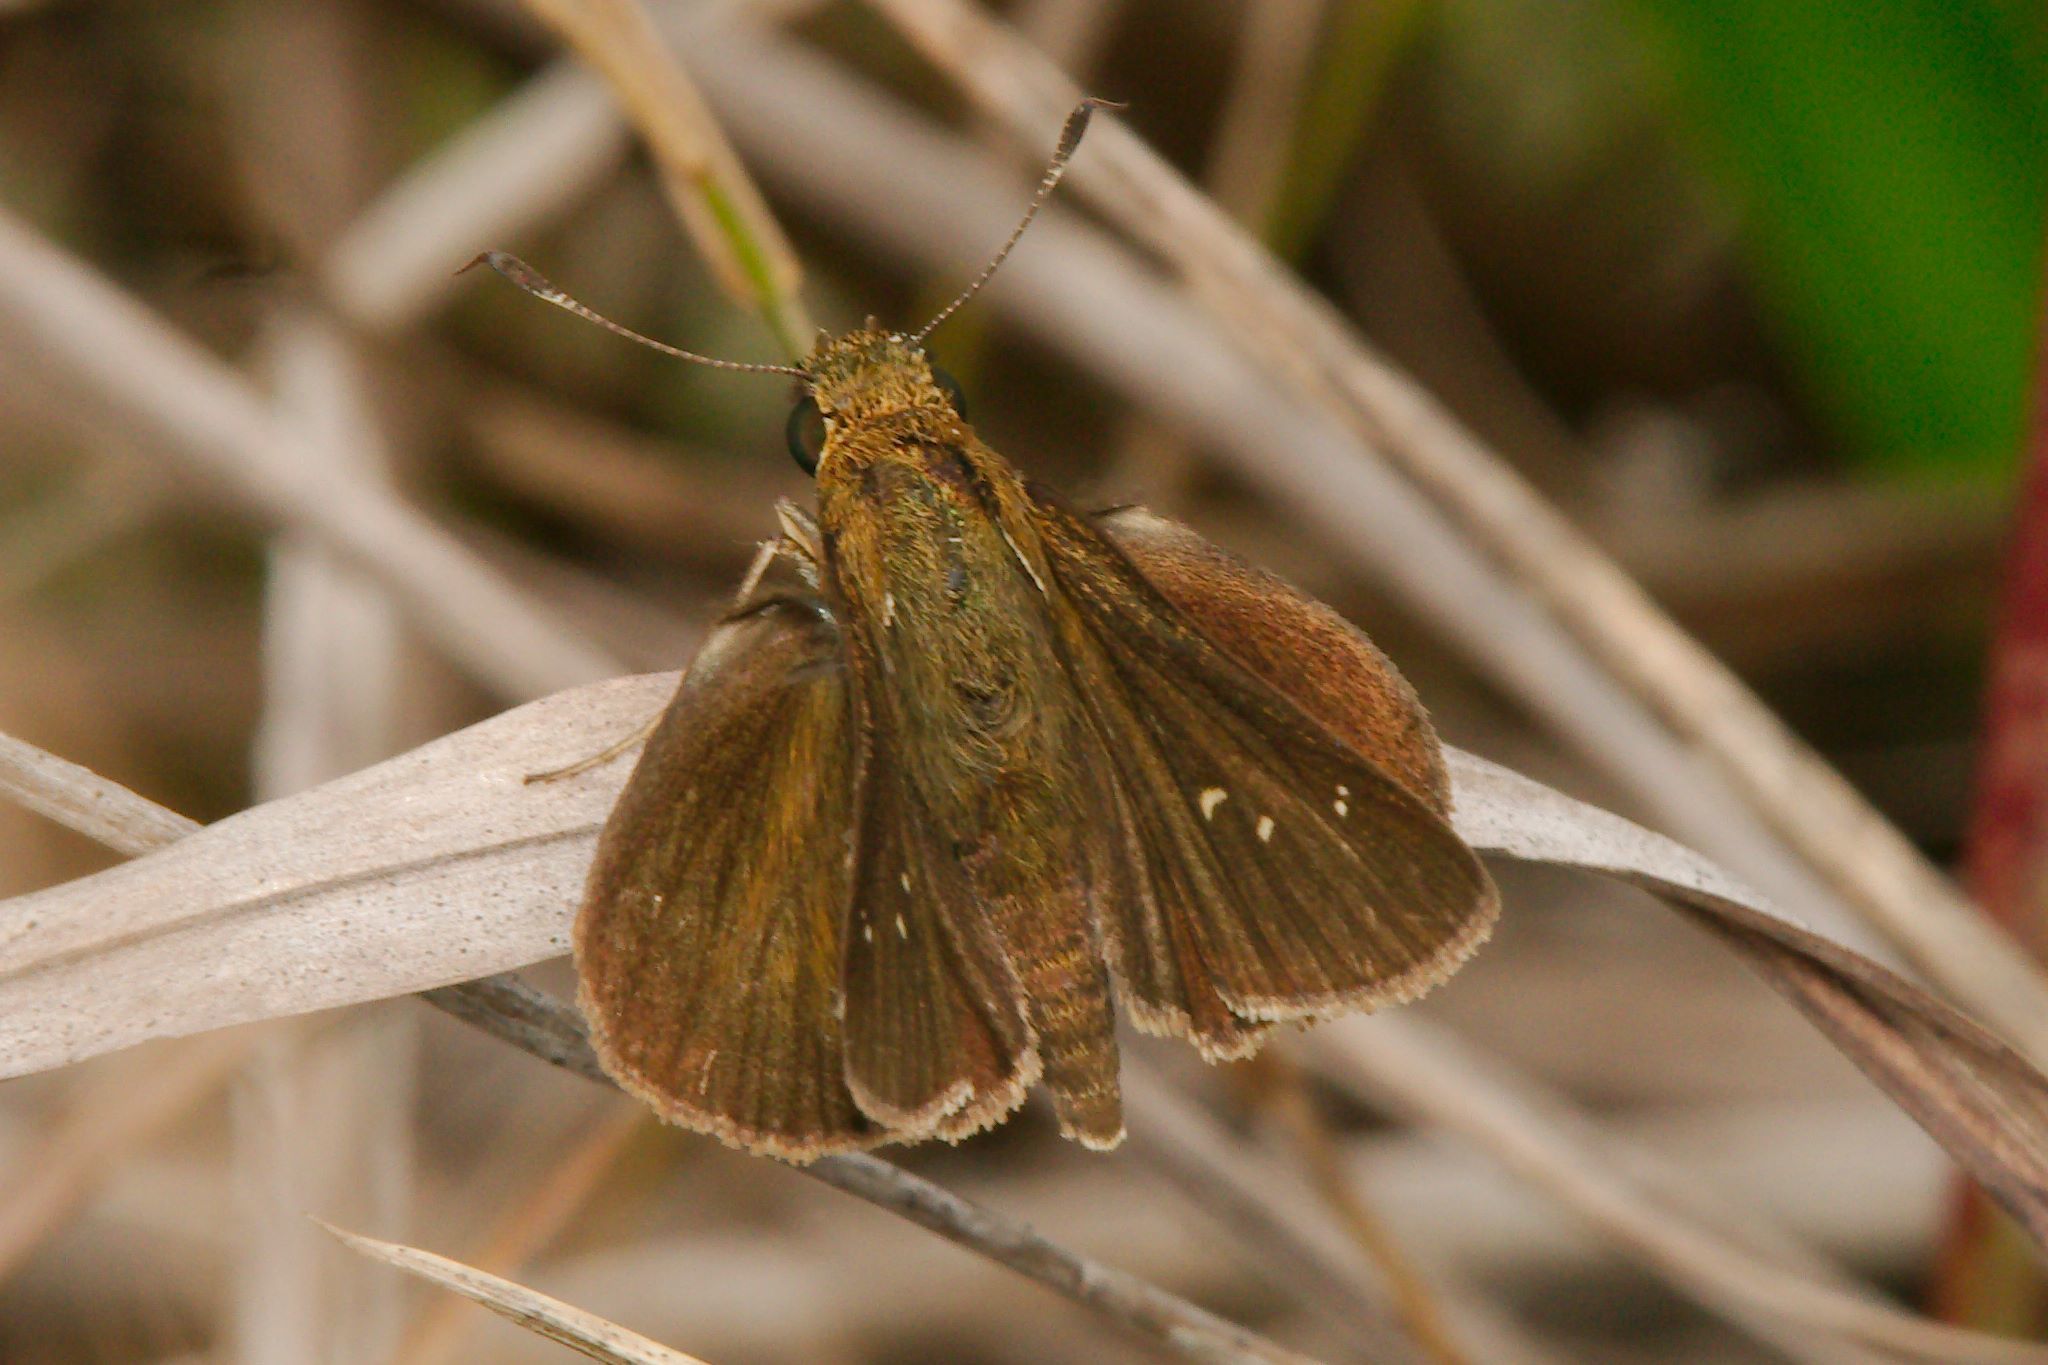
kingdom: Animalia
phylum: Arthropoda
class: Insecta
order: Lepidoptera
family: Hesperiidae
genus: Oligoria
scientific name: Oligoria maculata
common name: Twin-spot skipper
